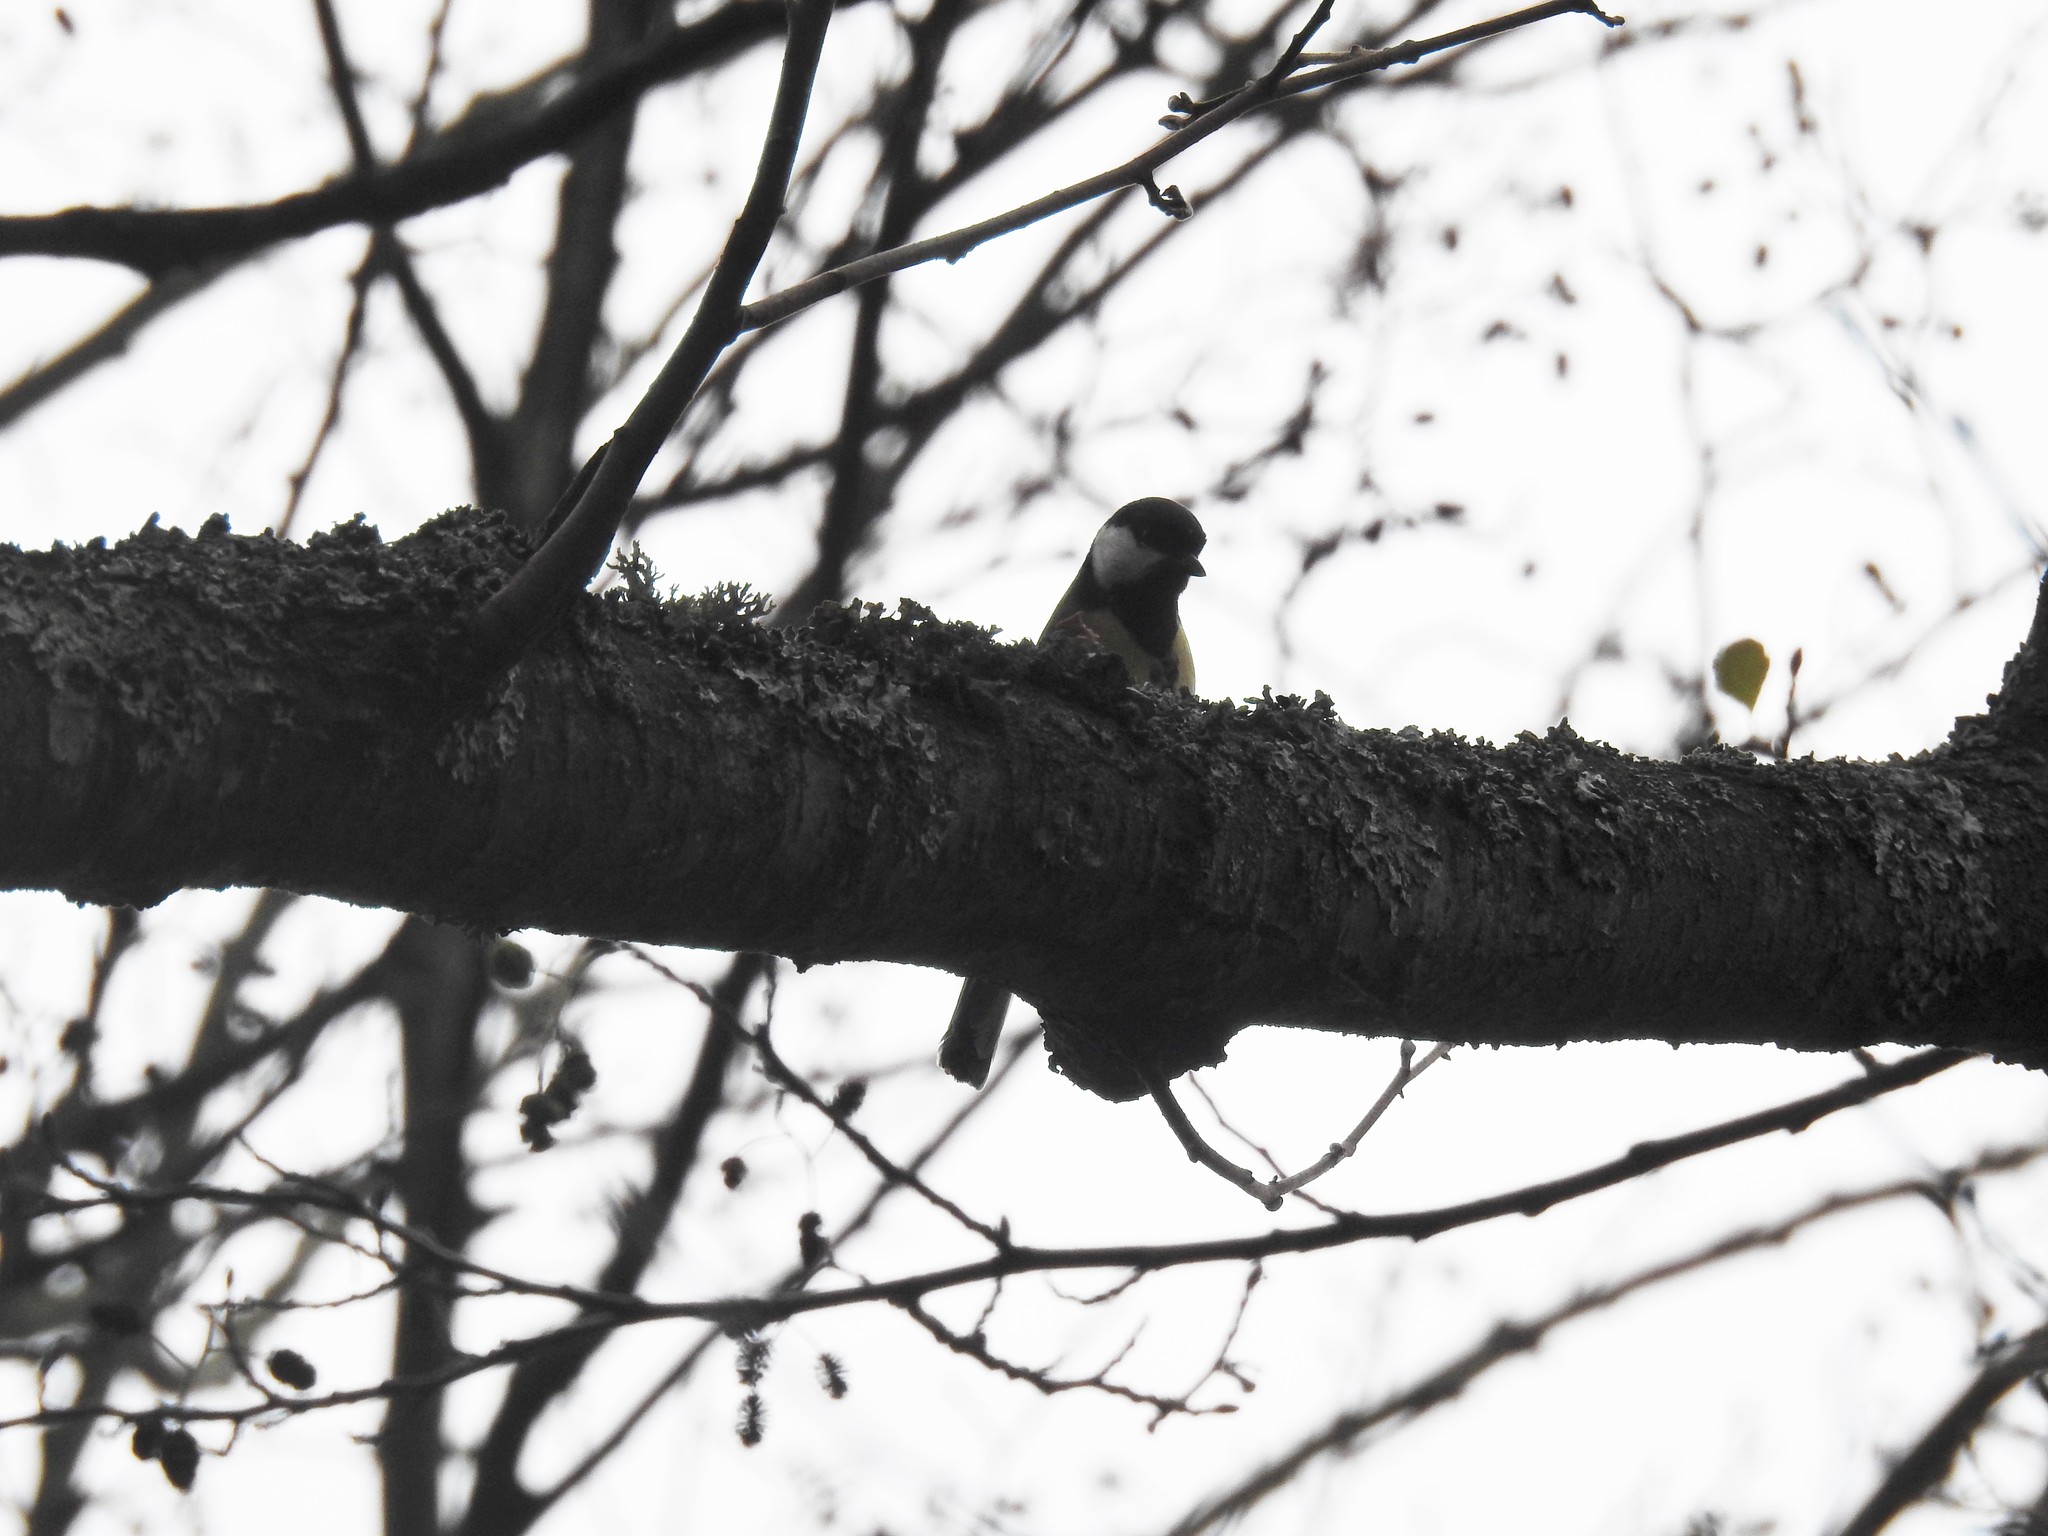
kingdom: Animalia
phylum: Chordata
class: Aves
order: Passeriformes
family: Paridae
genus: Parus
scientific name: Parus major
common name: Great tit
